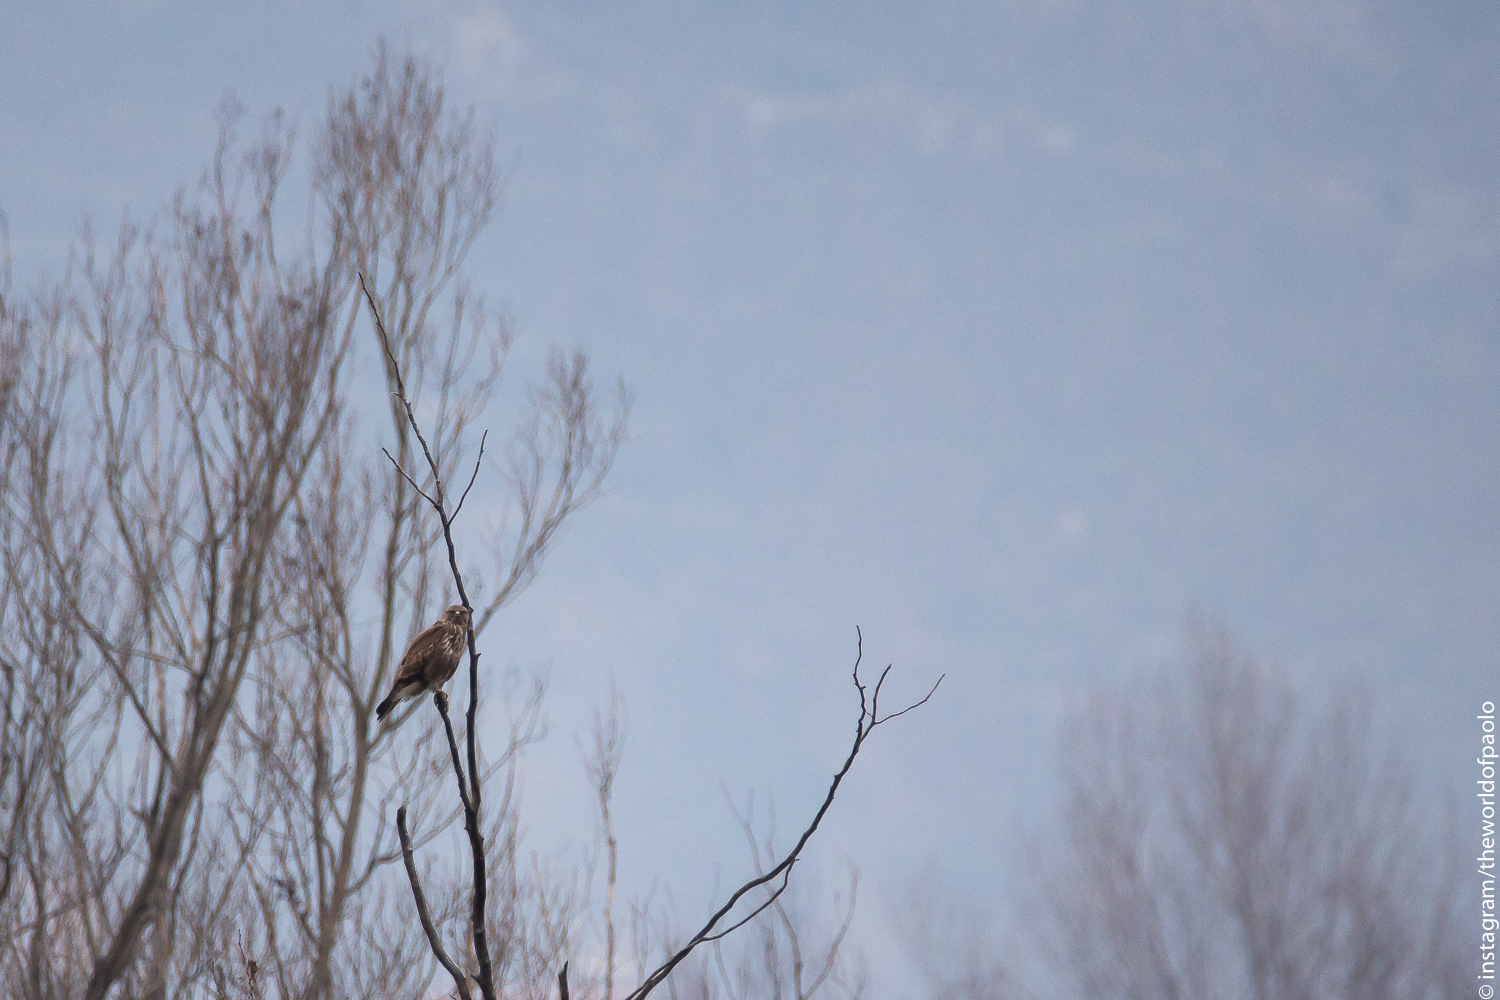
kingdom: Animalia
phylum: Chordata
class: Aves
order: Accipitriformes
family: Accipitridae
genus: Buteo
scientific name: Buteo buteo
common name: Common buzzard
